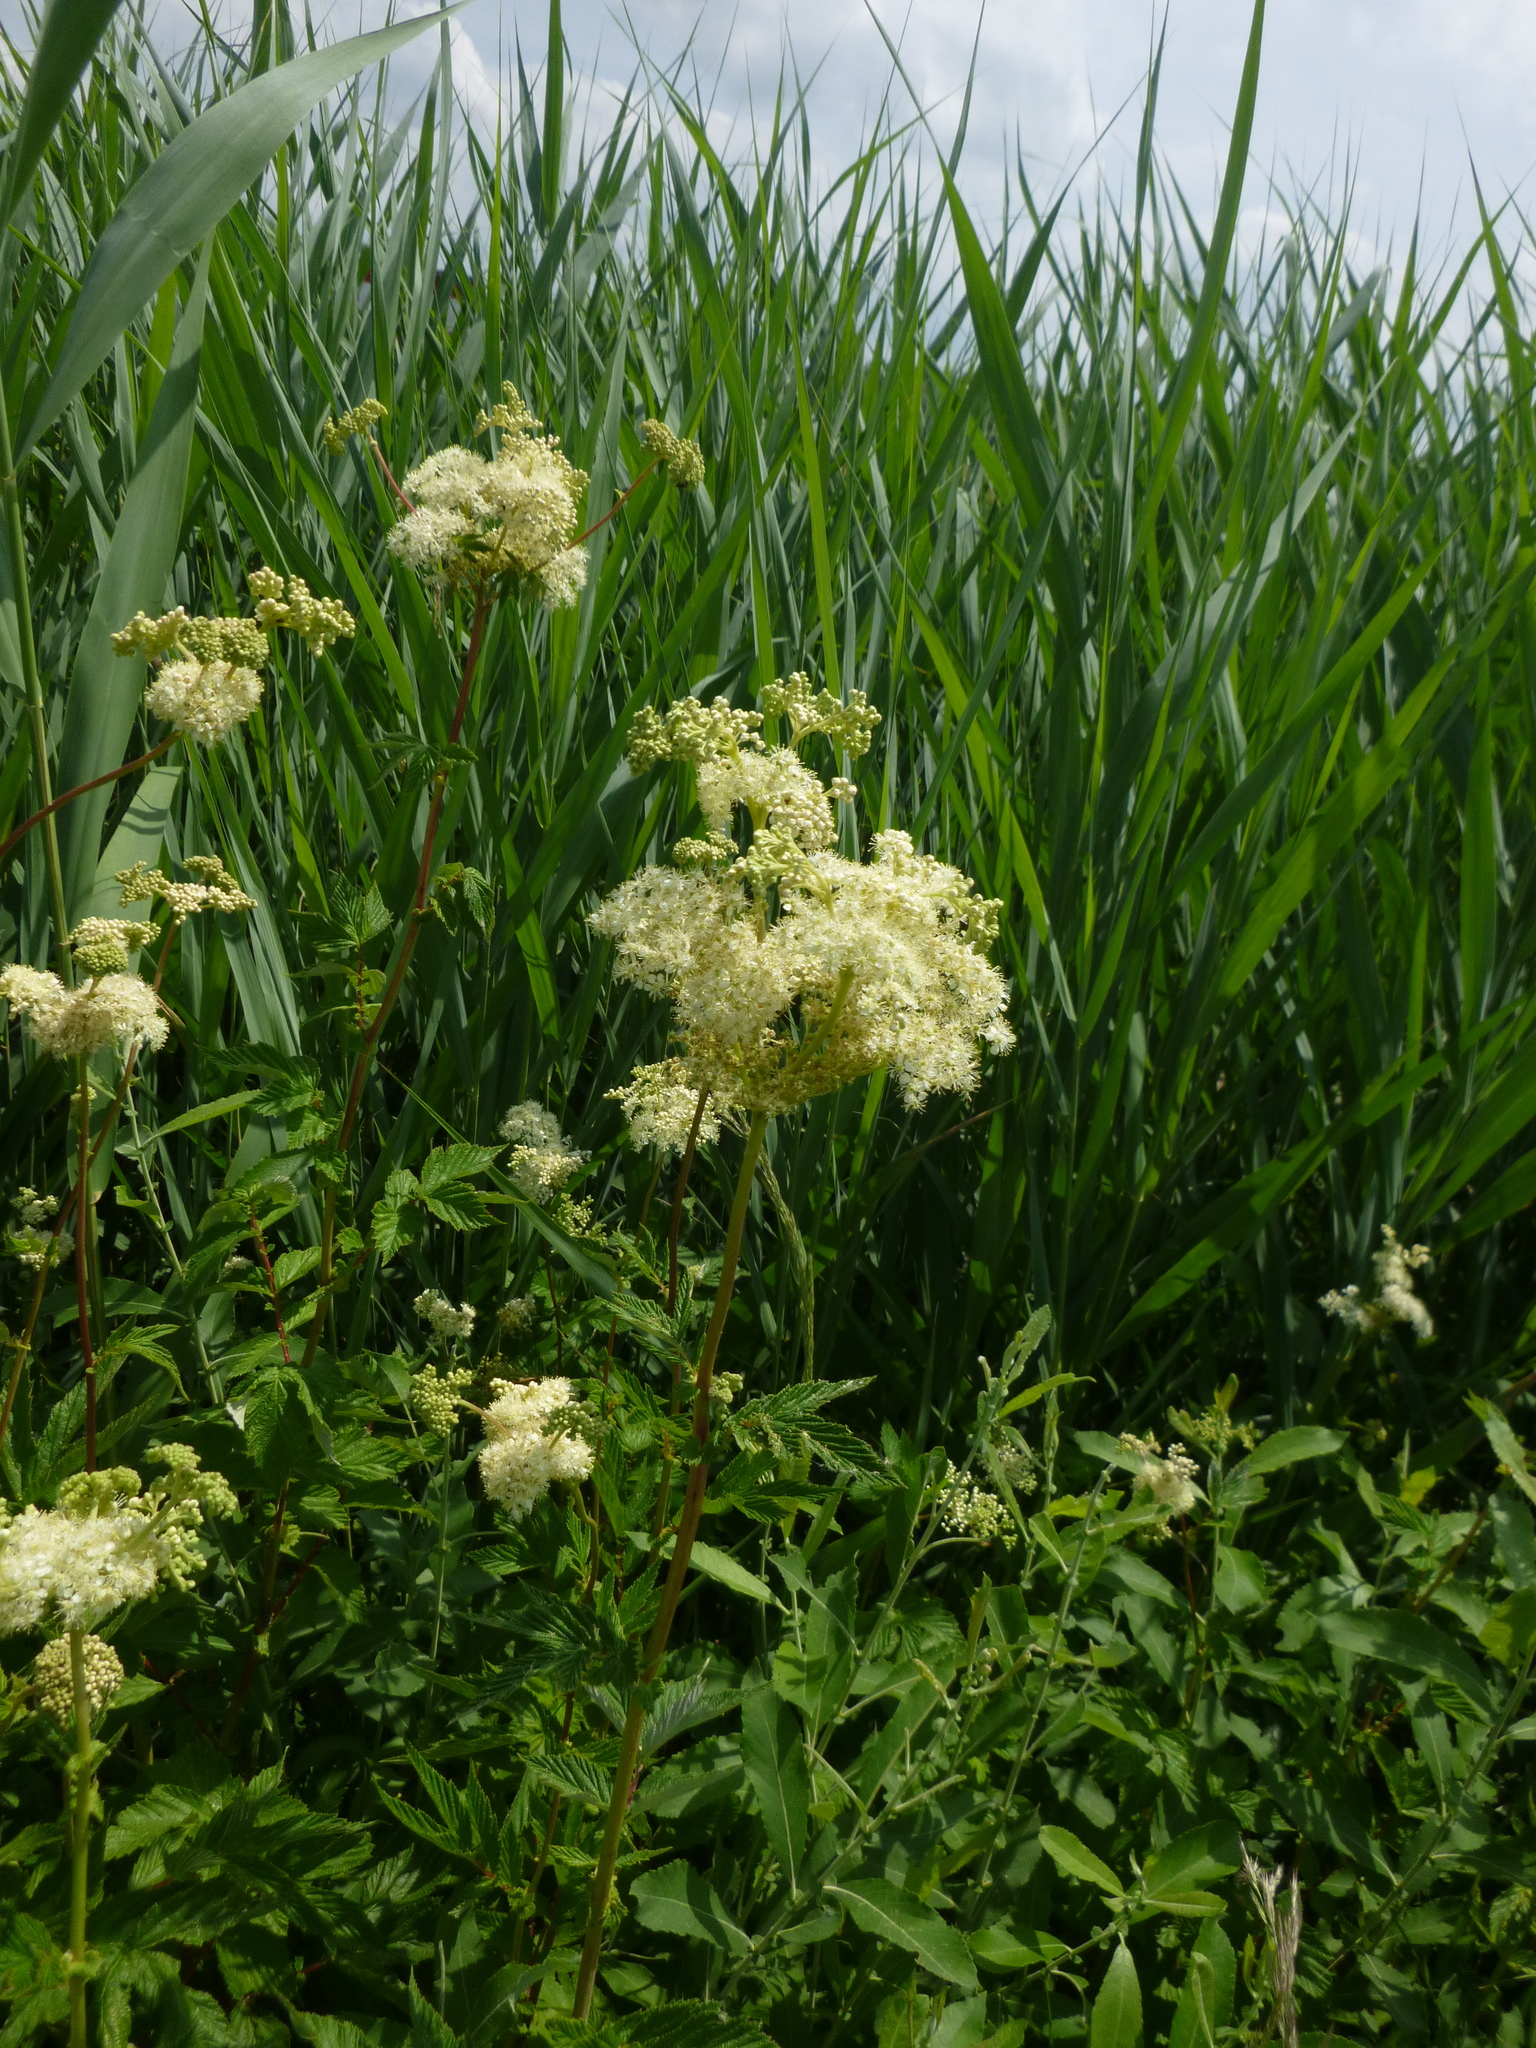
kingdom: Plantae
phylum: Tracheophyta
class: Magnoliopsida
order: Rosales
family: Rosaceae
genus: Filipendula
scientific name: Filipendula ulmaria
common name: Meadowsweet
